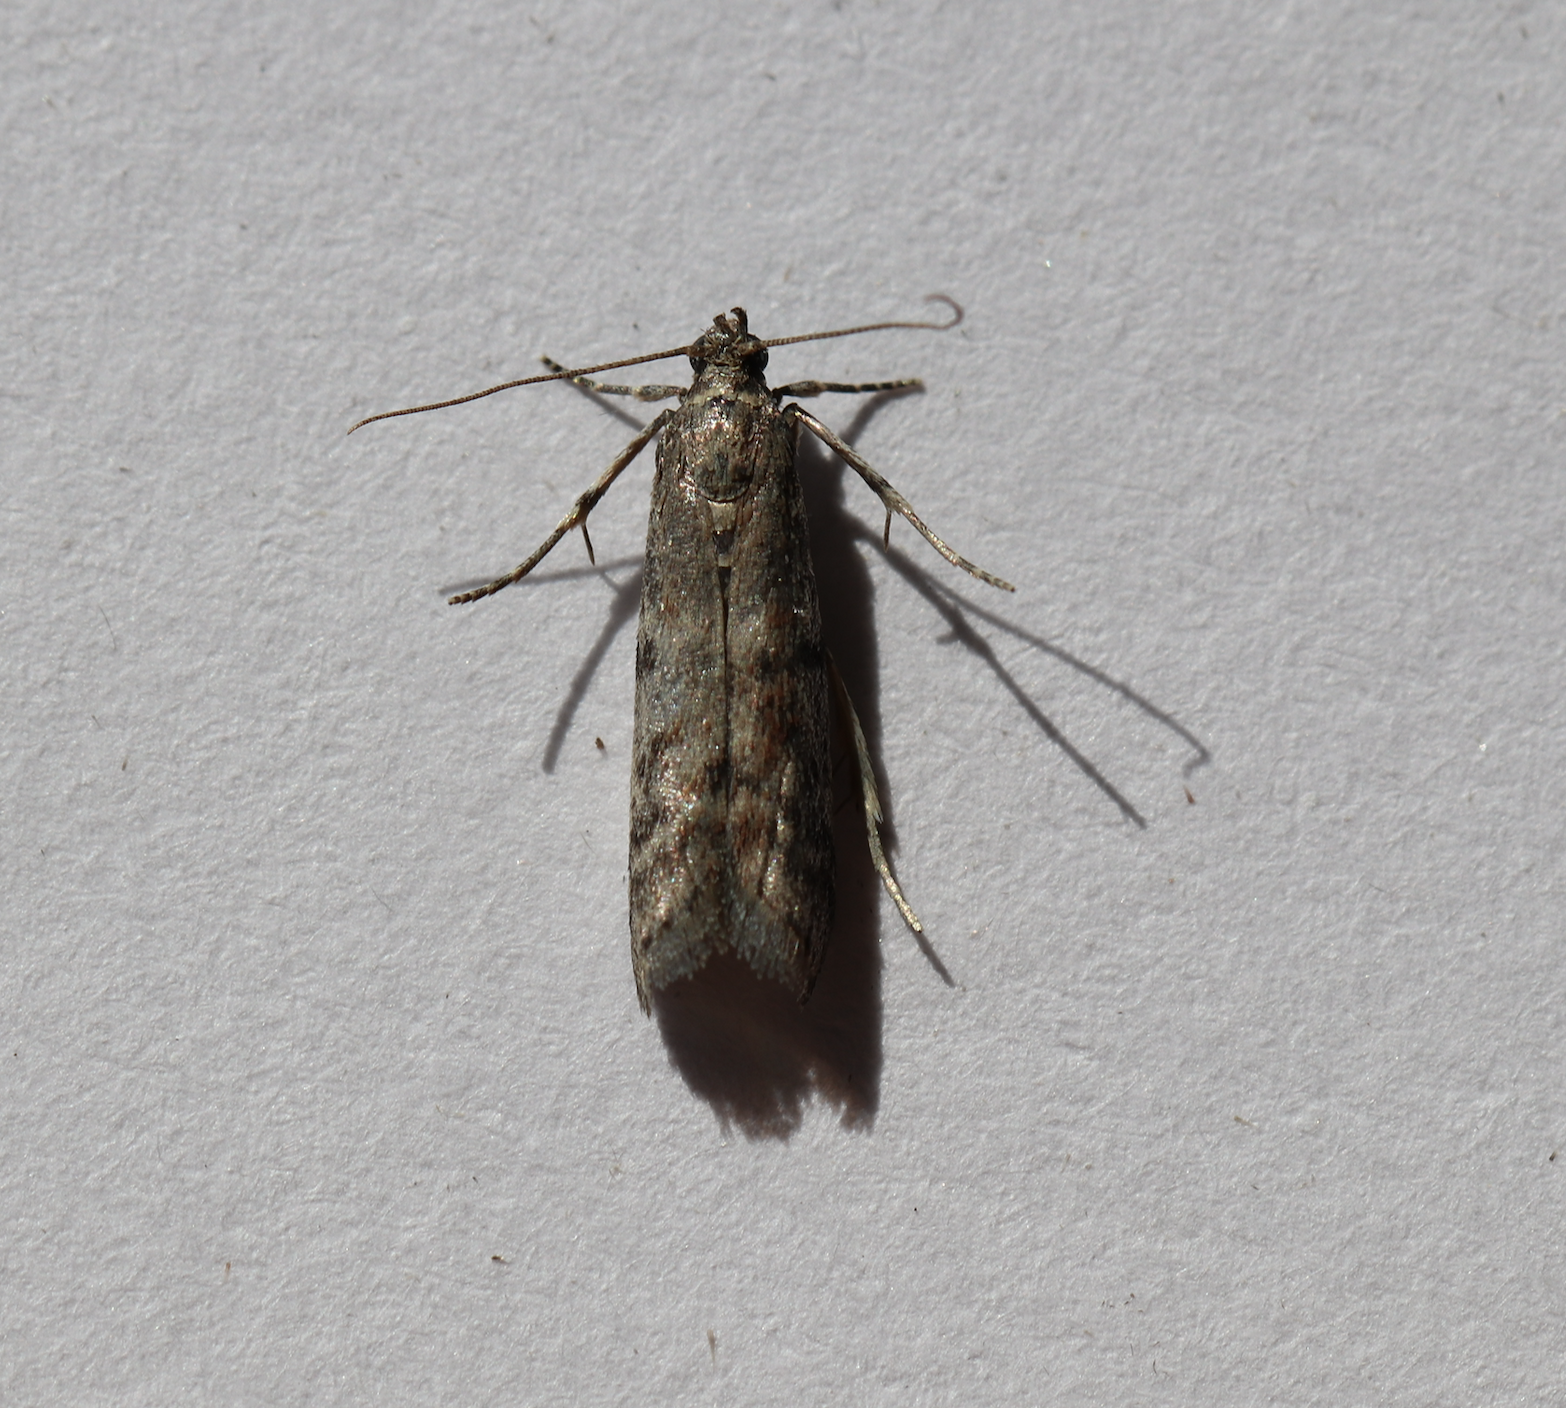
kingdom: Animalia
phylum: Arthropoda
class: Insecta
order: Lepidoptera
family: Pyralidae
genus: Ephestia
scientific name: Ephestia elutella
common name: Cacao moth
